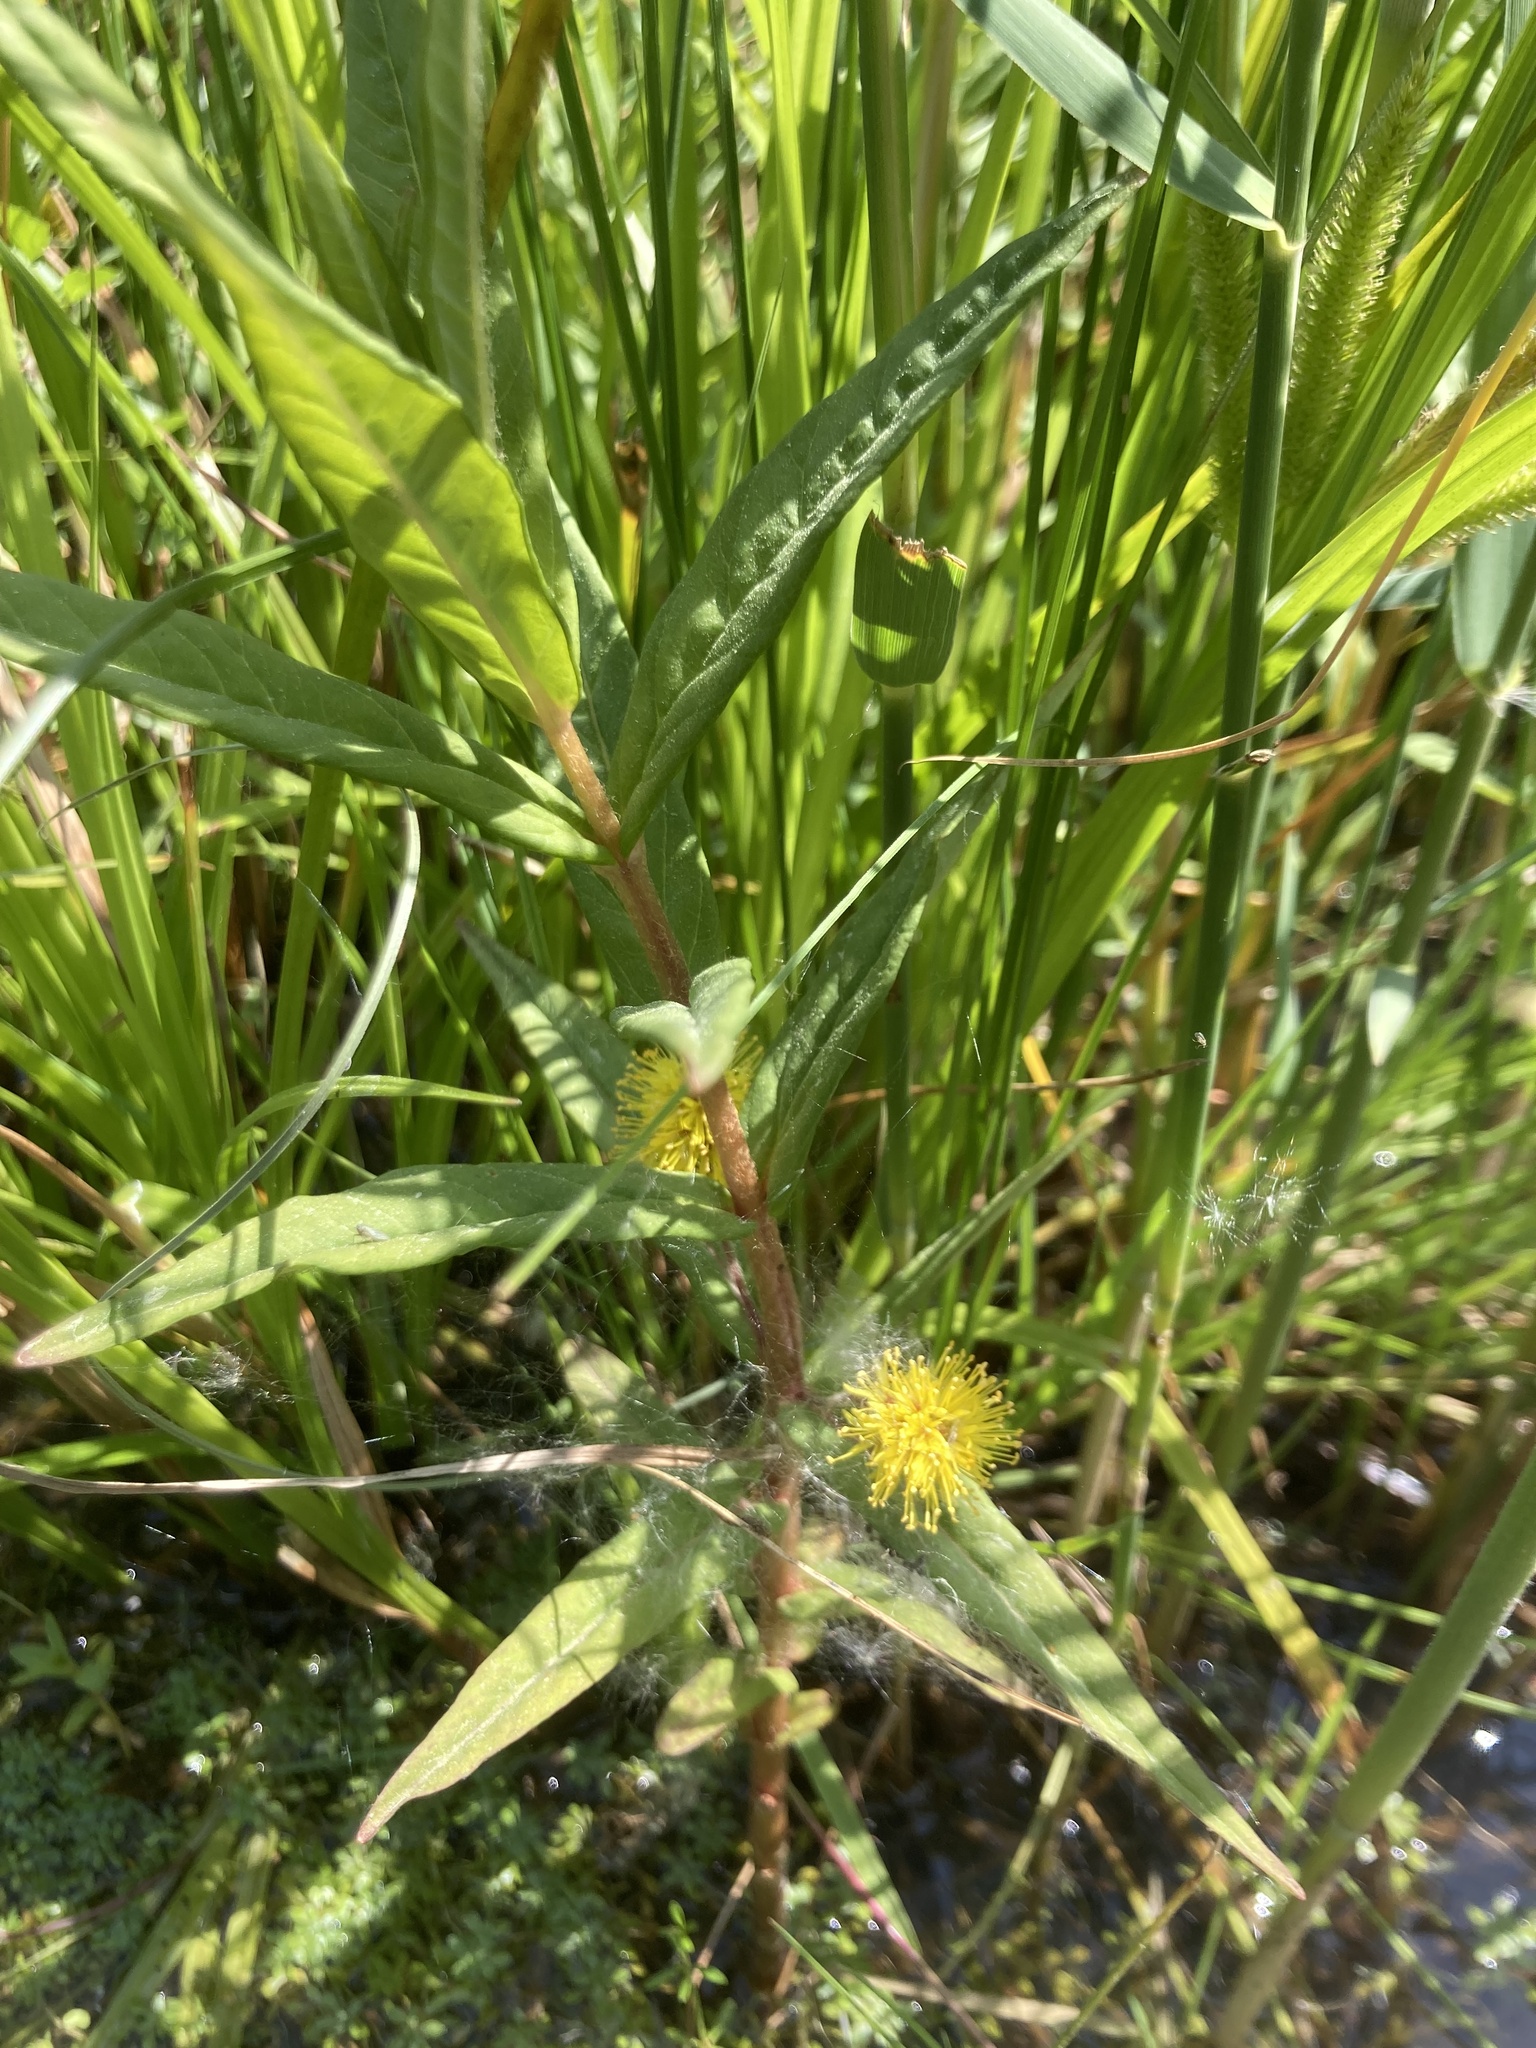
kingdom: Plantae
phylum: Tracheophyta
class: Magnoliopsida
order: Ericales
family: Primulaceae
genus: Lysimachia
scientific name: Lysimachia thyrsiflora
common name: Tufted loosestrife
